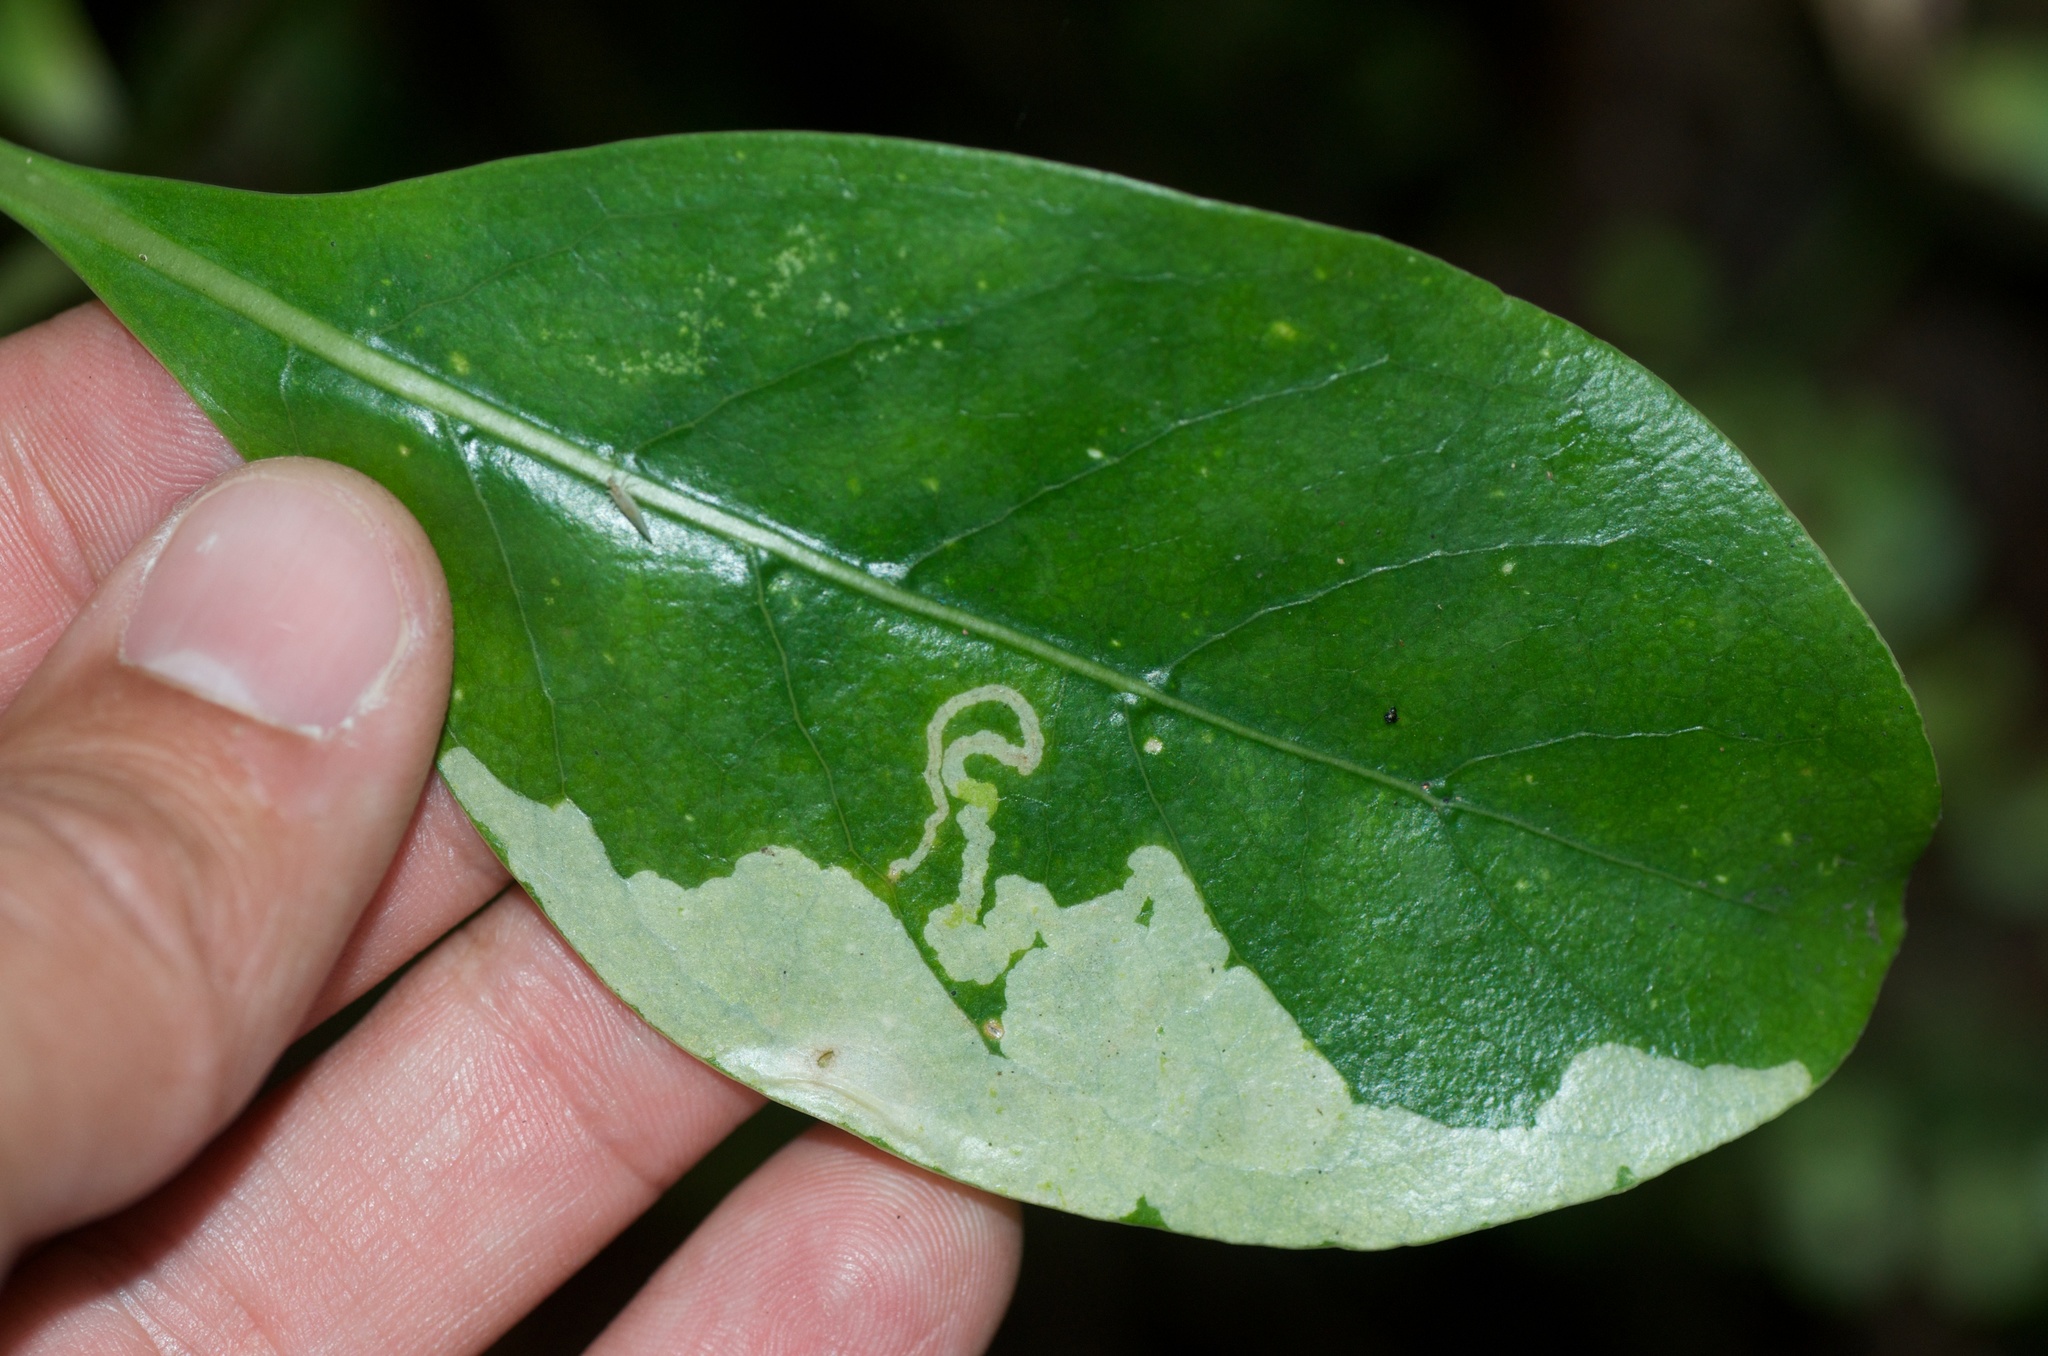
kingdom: Animalia
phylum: Arthropoda
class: Insecta
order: Lepidoptera
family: Gracillariidae
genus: Corythoxestis
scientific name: Corythoxestis zorionella
